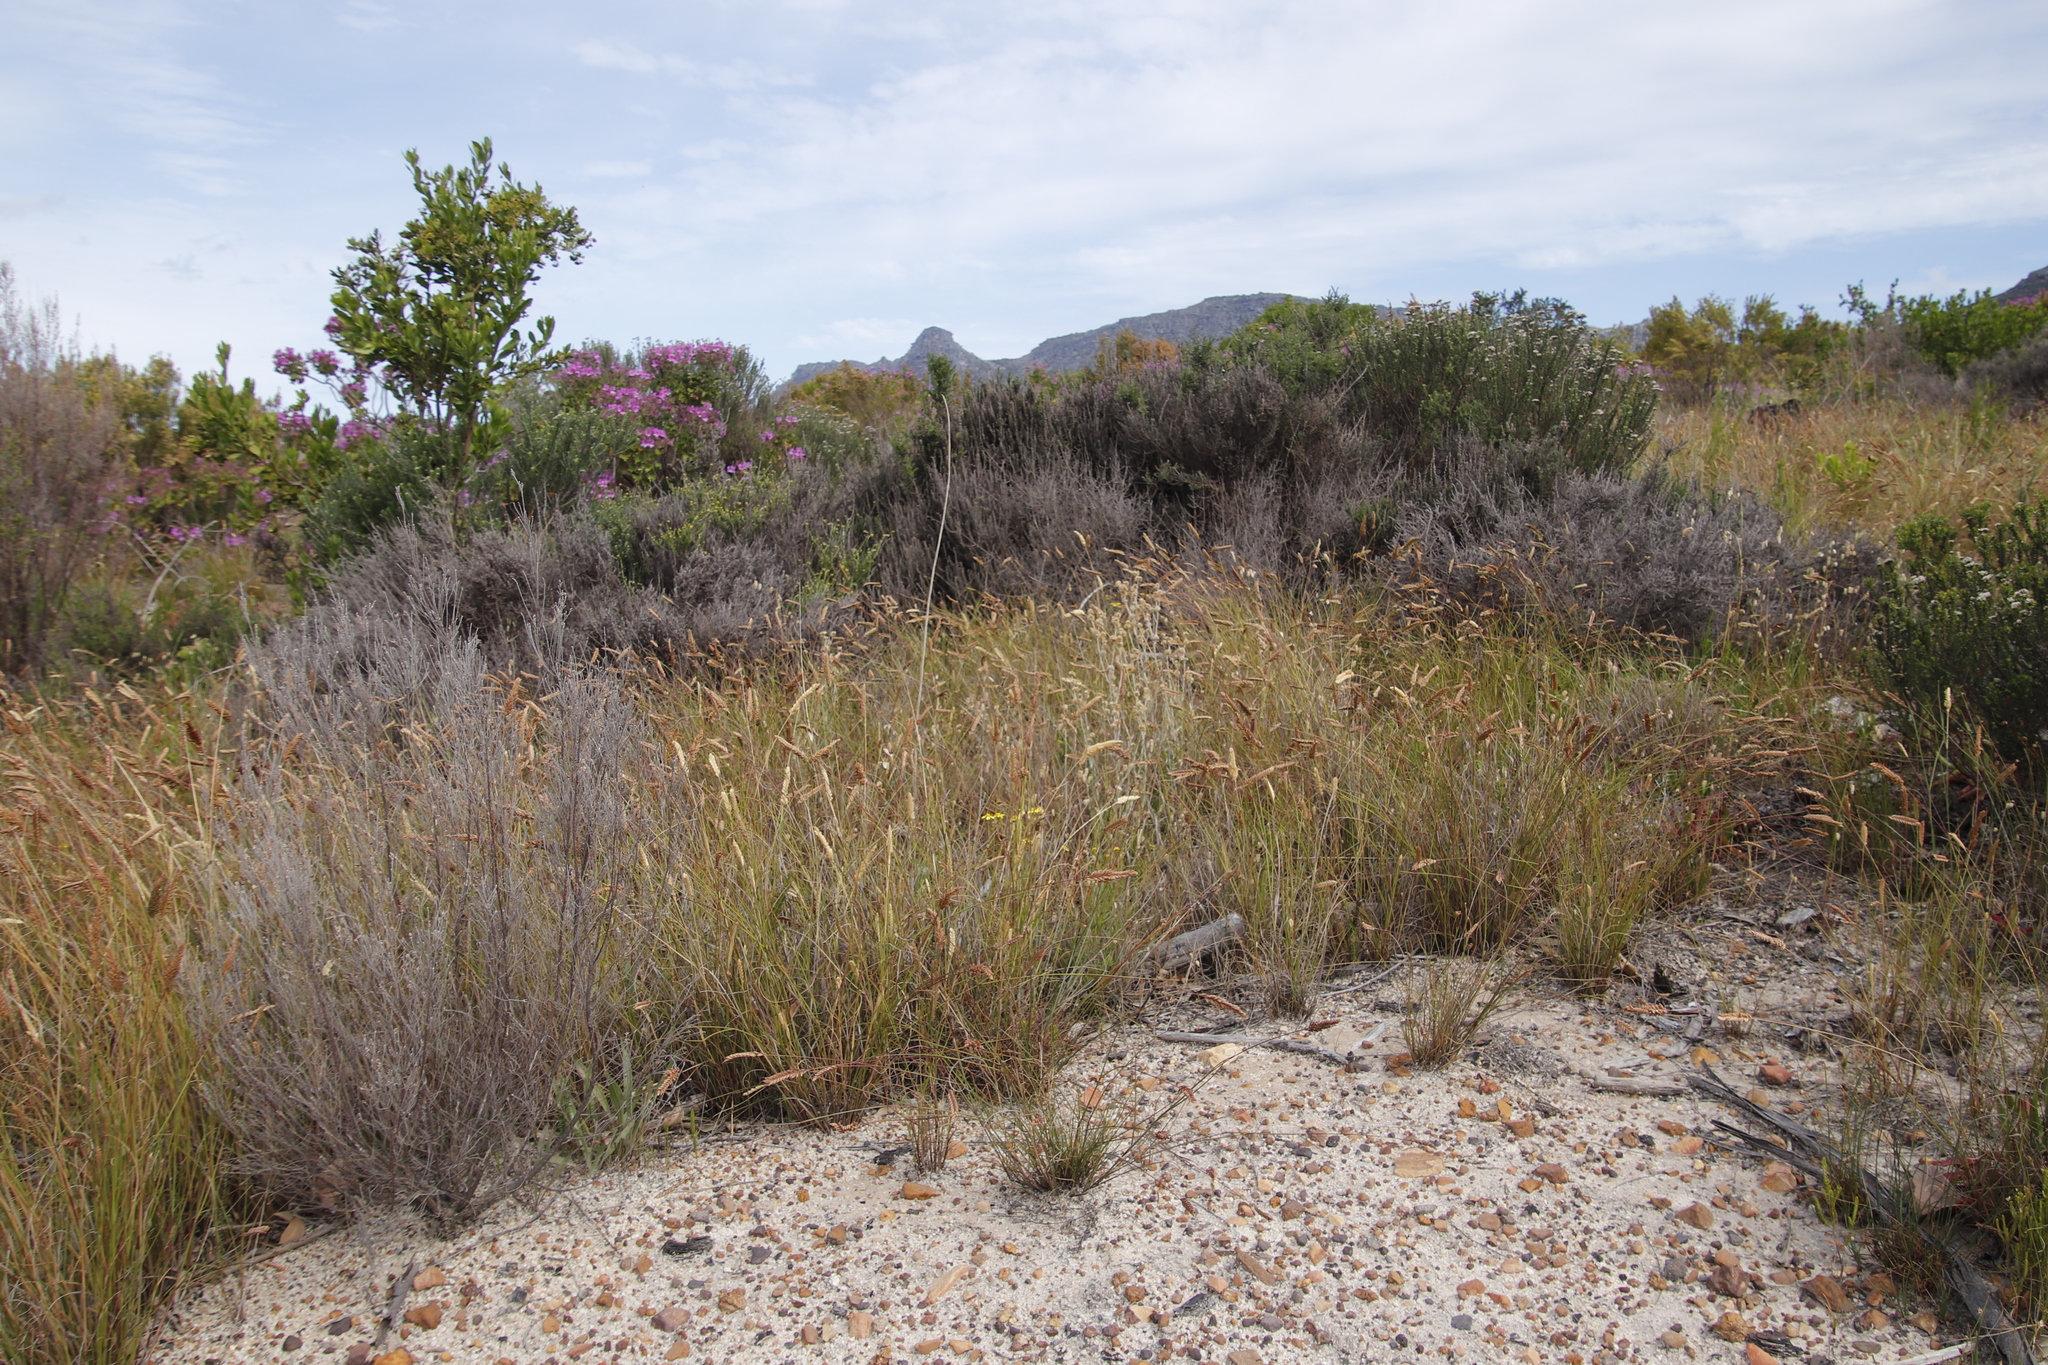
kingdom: Plantae
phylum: Tracheophyta
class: Liliopsida
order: Poales
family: Poaceae
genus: Tribolium
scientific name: Tribolium uniolae
